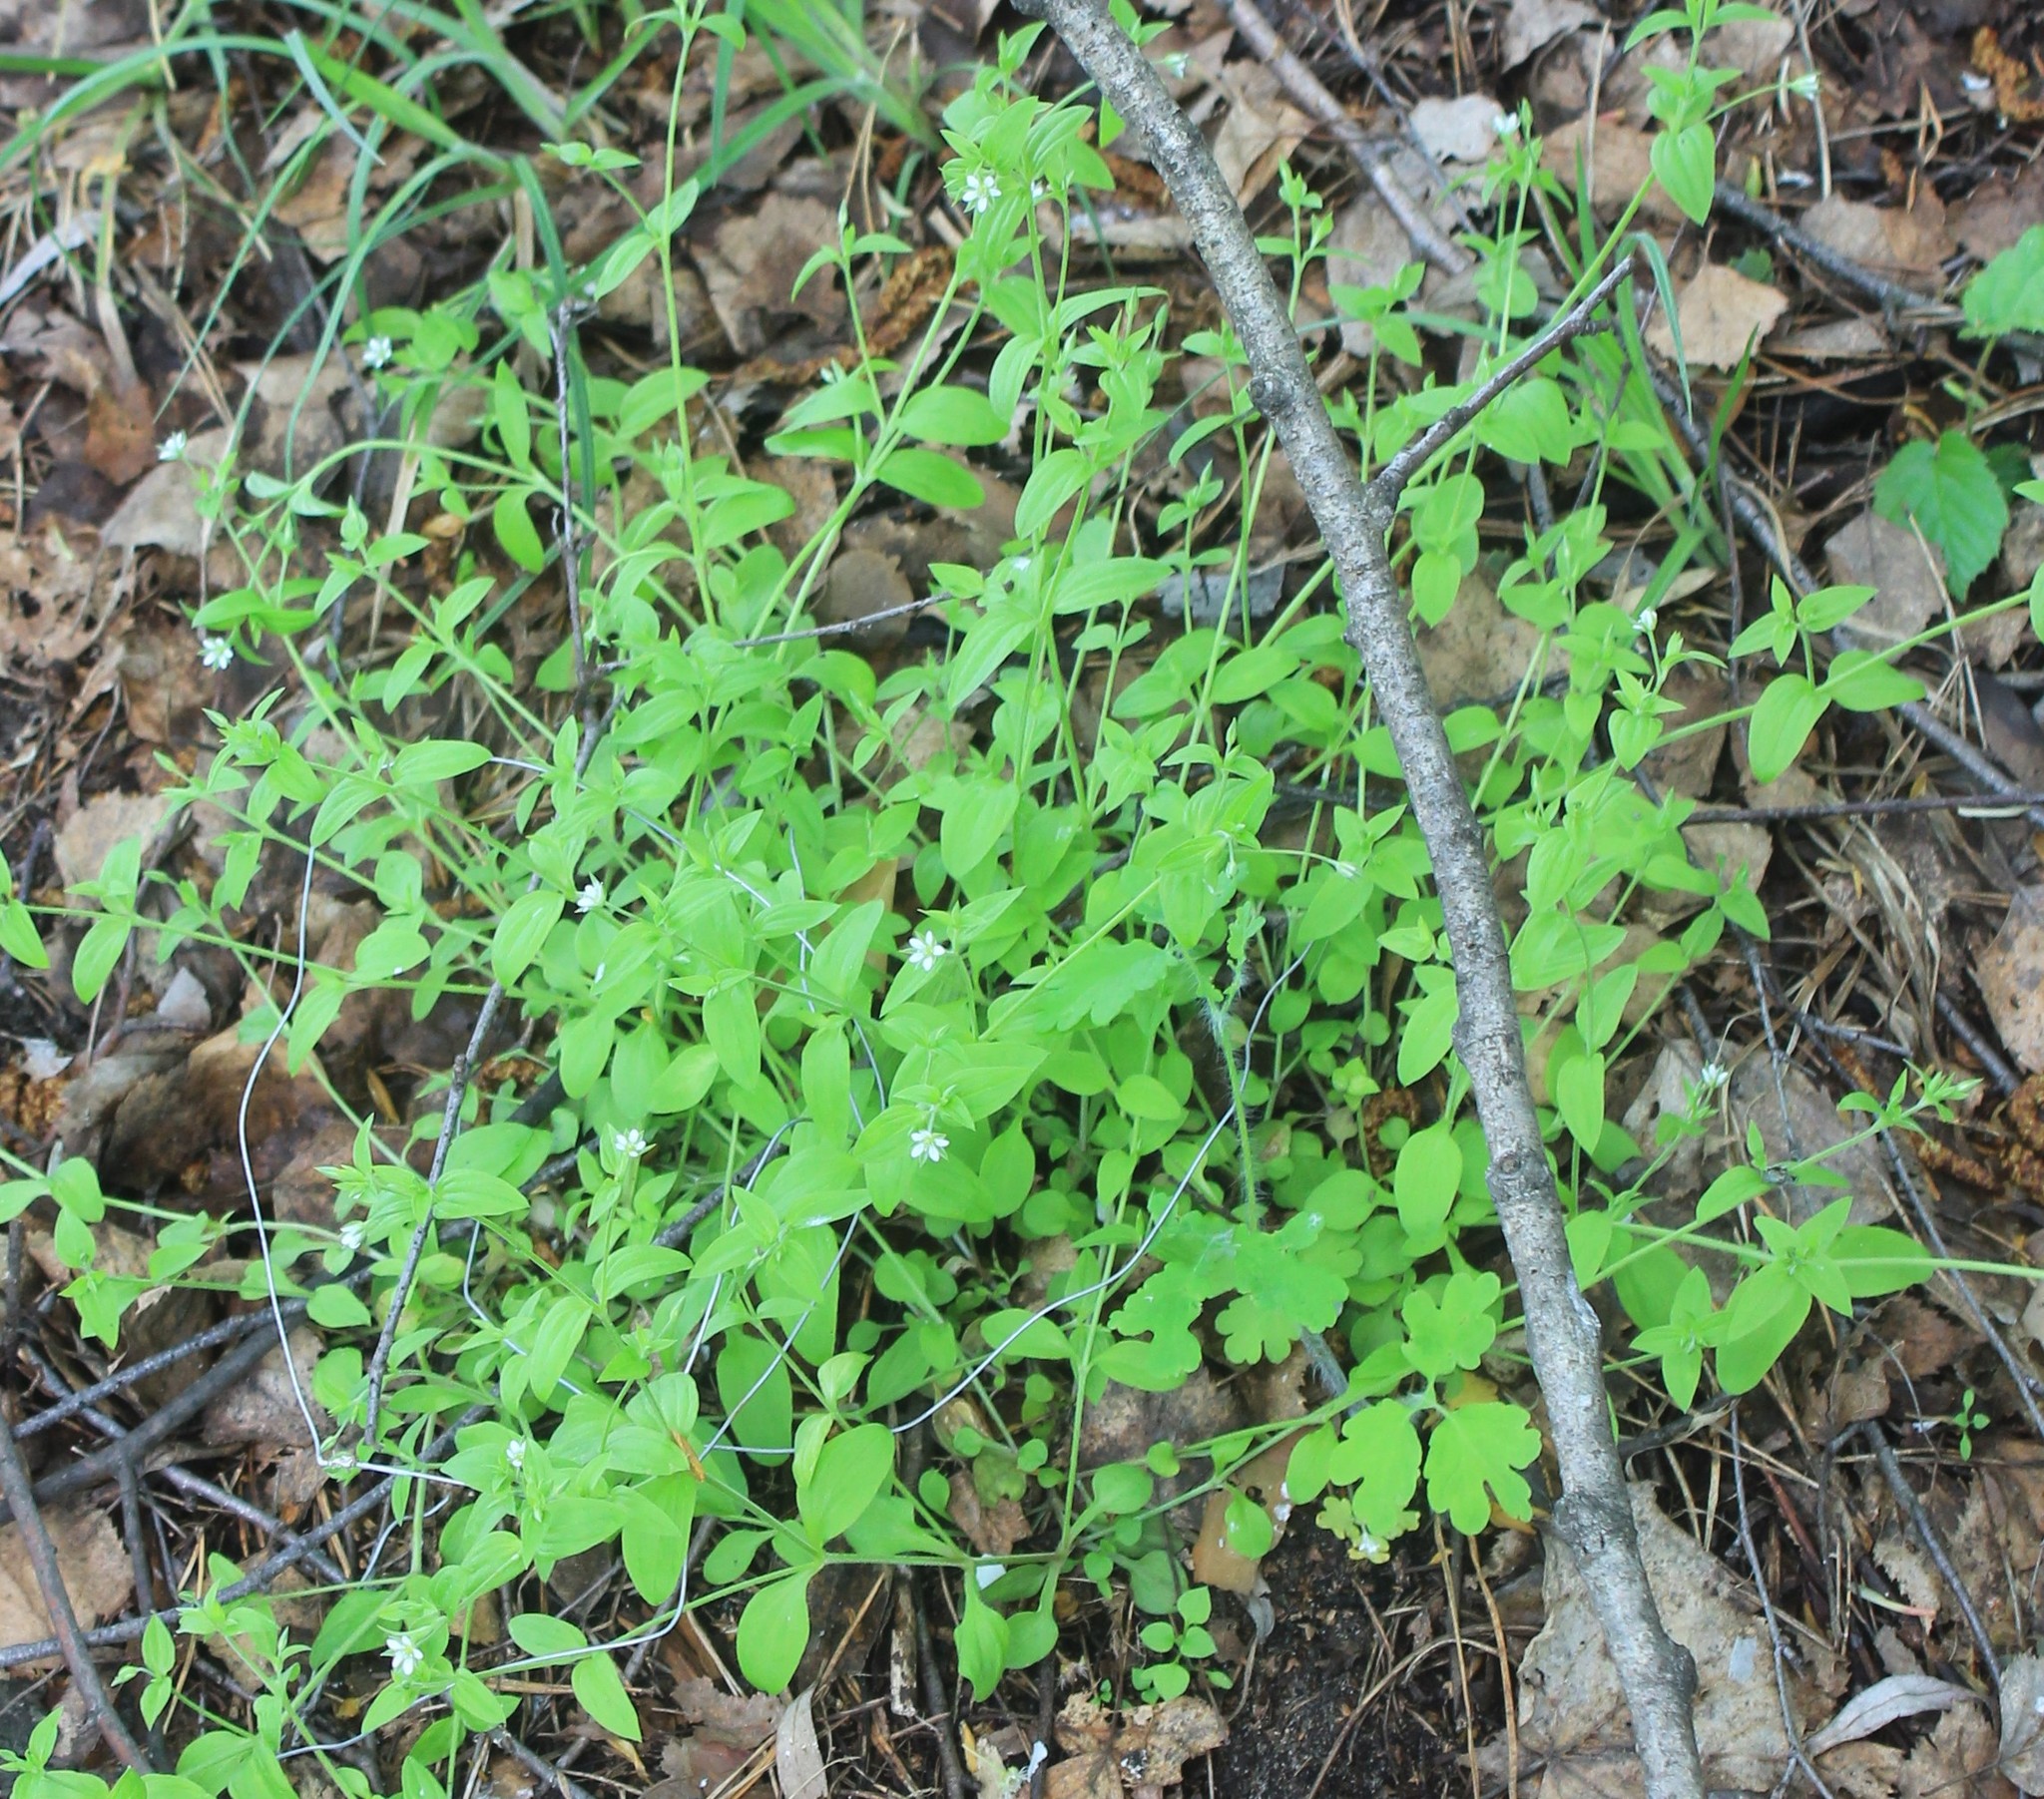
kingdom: Plantae
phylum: Tracheophyta
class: Magnoliopsida
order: Caryophyllales
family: Caryophyllaceae
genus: Moehringia
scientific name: Moehringia trinervia
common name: Three-nerved sandwort
